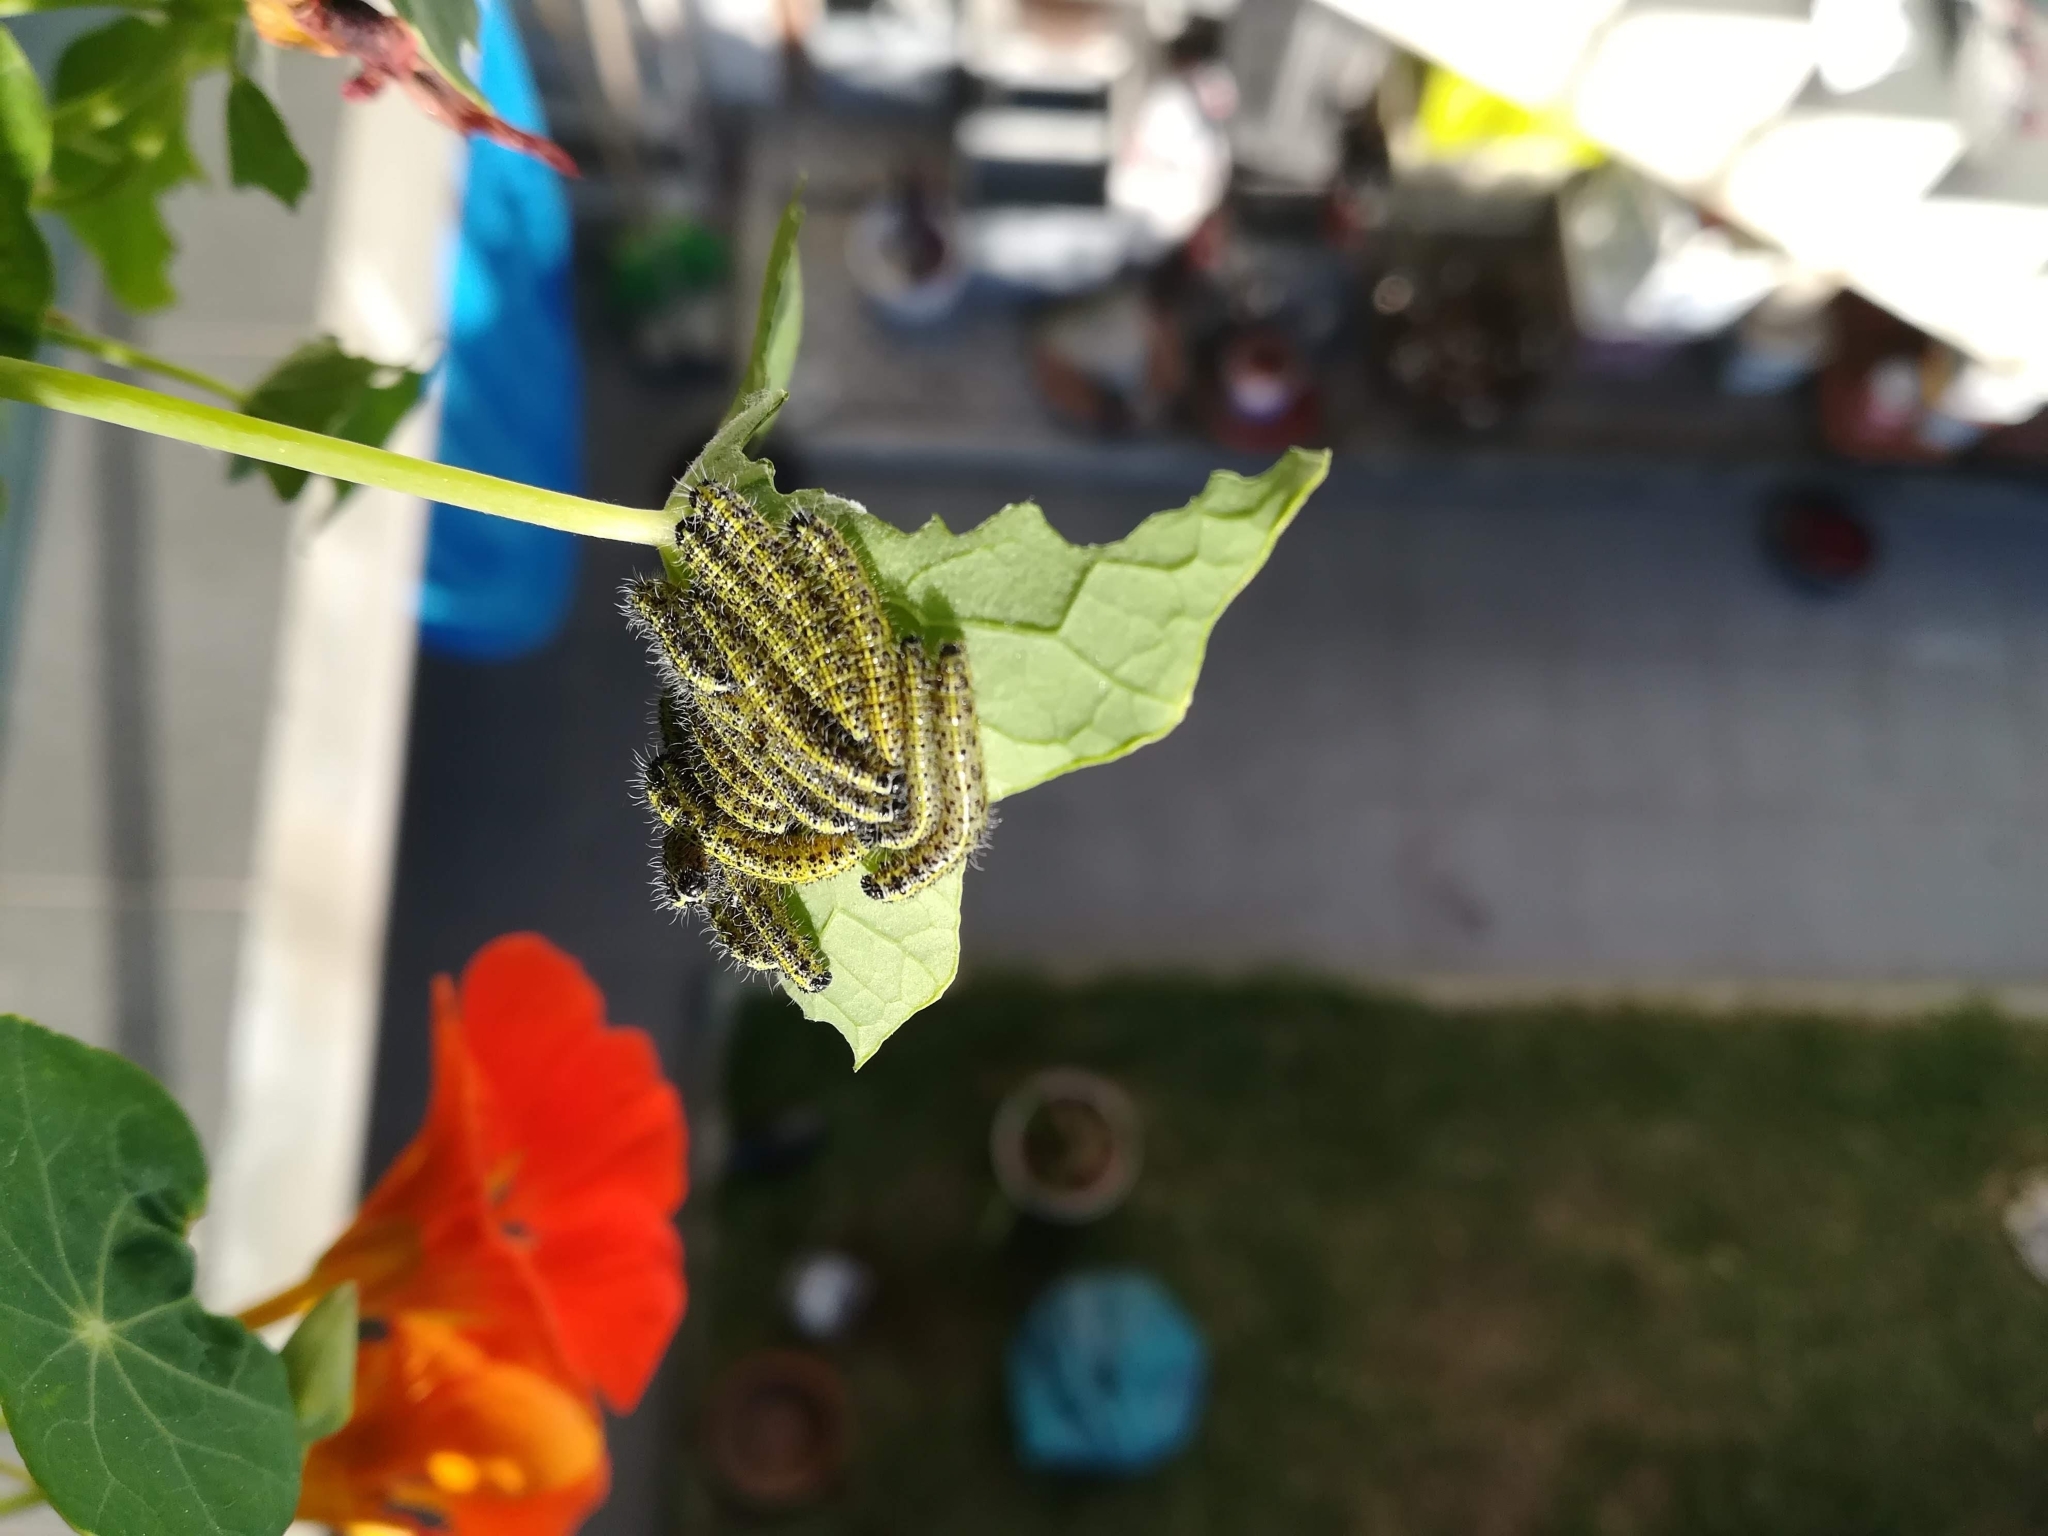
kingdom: Animalia
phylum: Arthropoda
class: Insecta
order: Lepidoptera
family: Pieridae
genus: Pieris
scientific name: Pieris brassicae
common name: Large white
